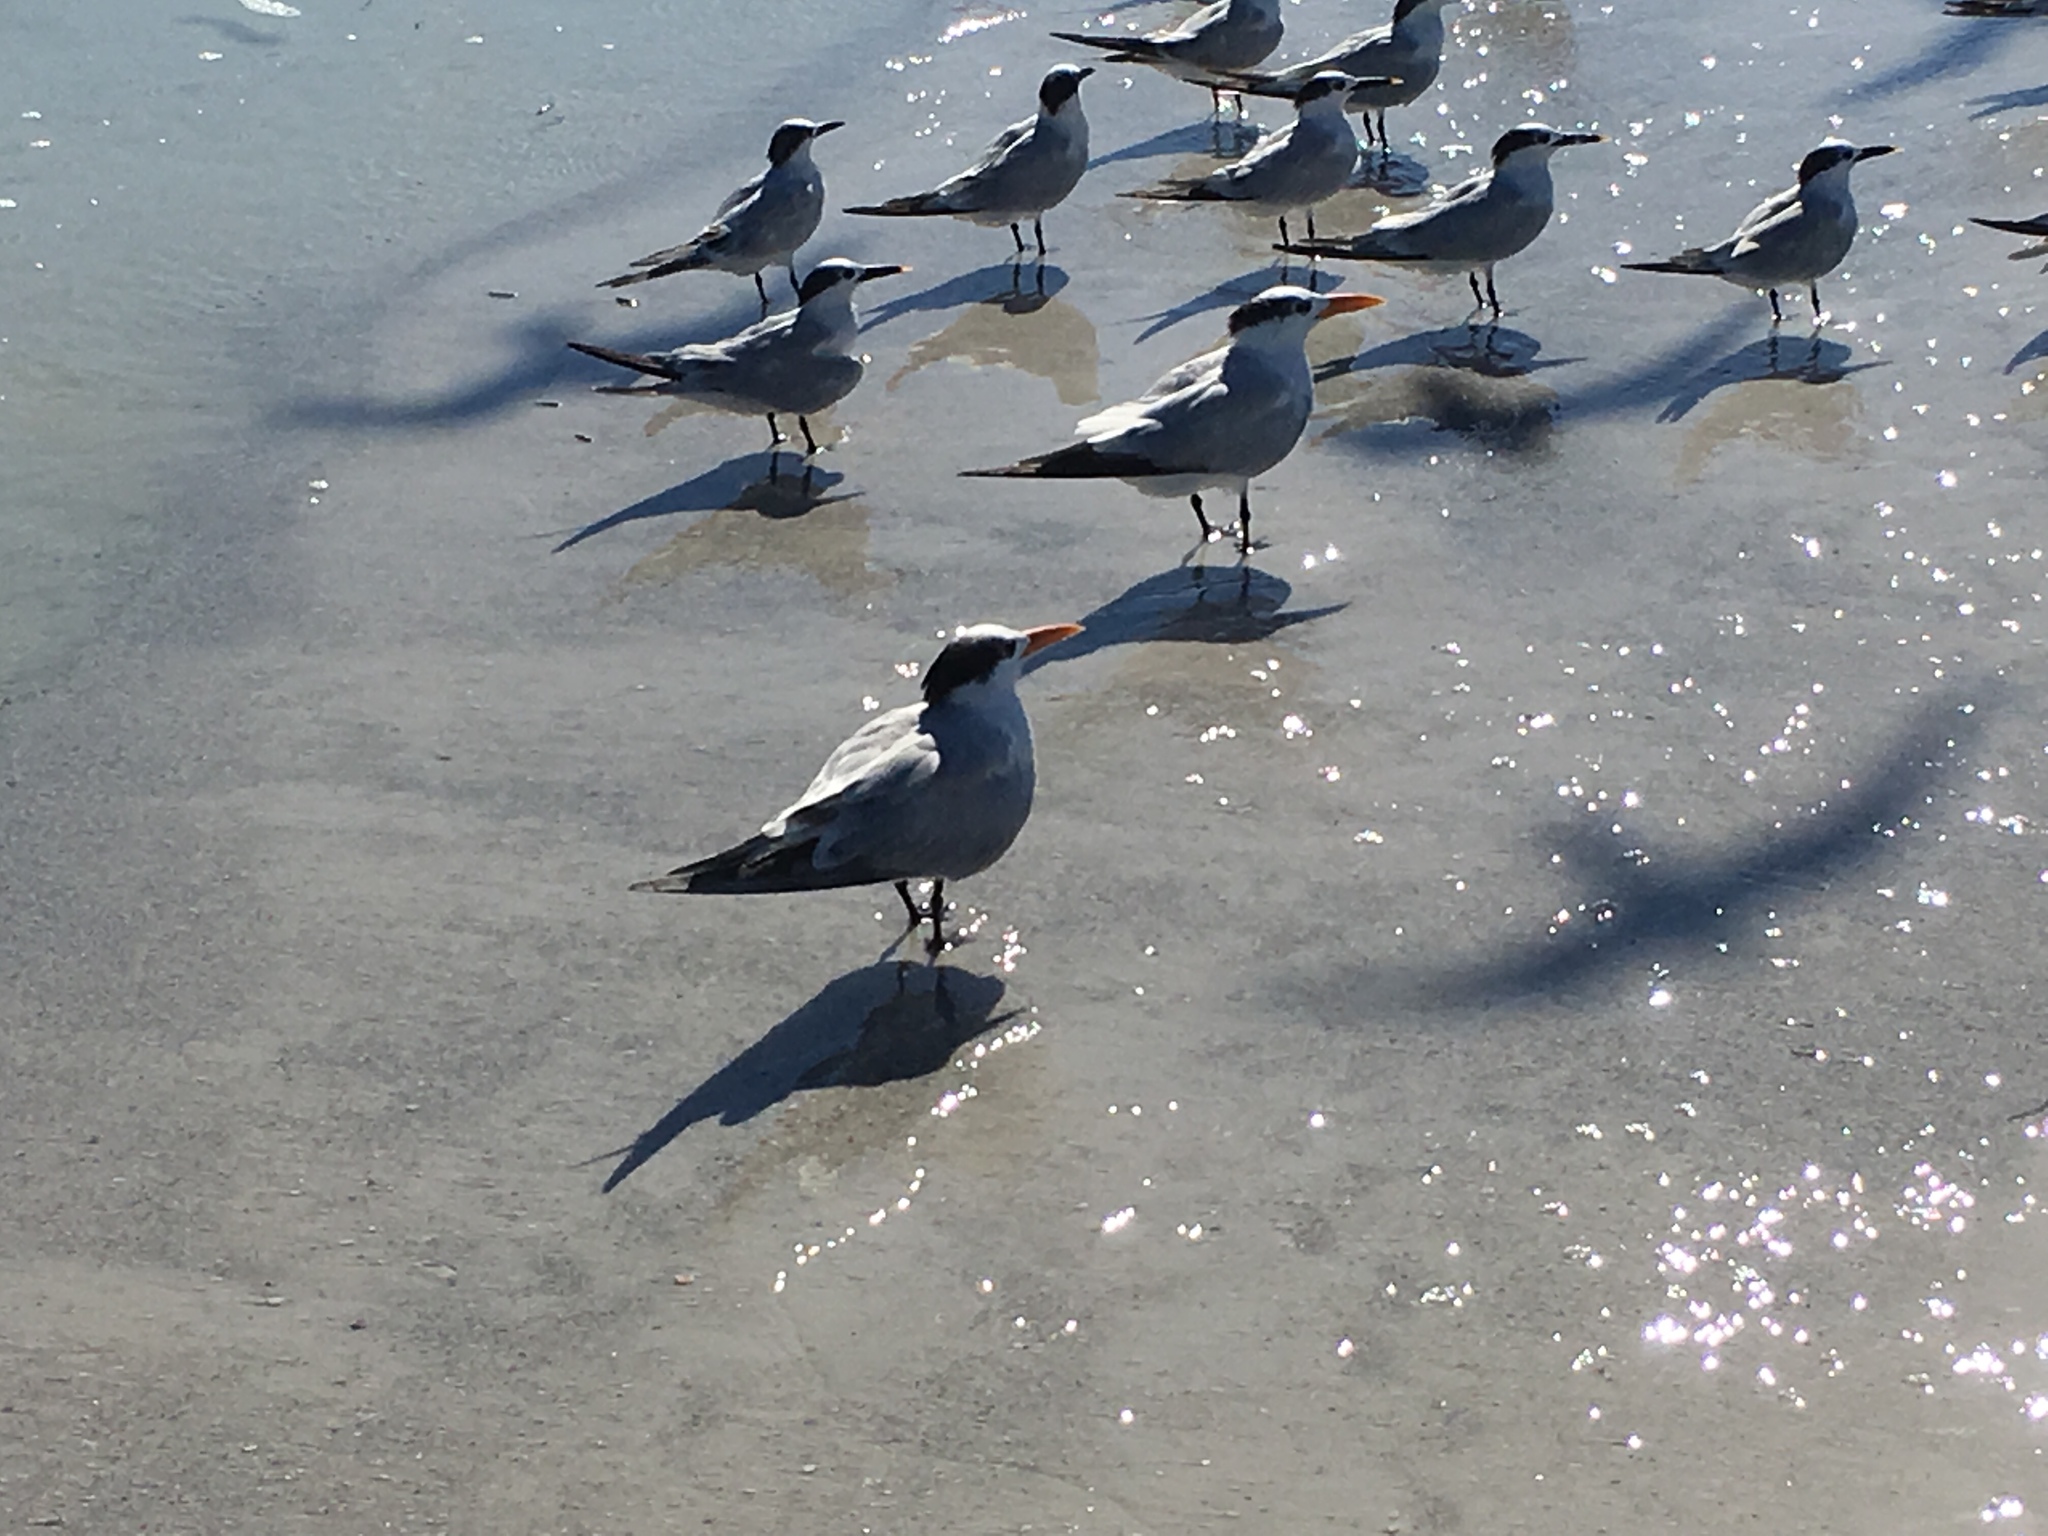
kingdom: Animalia
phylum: Chordata
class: Aves
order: Charadriiformes
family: Laridae
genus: Thalasseus
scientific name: Thalasseus maximus
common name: Royal tern
